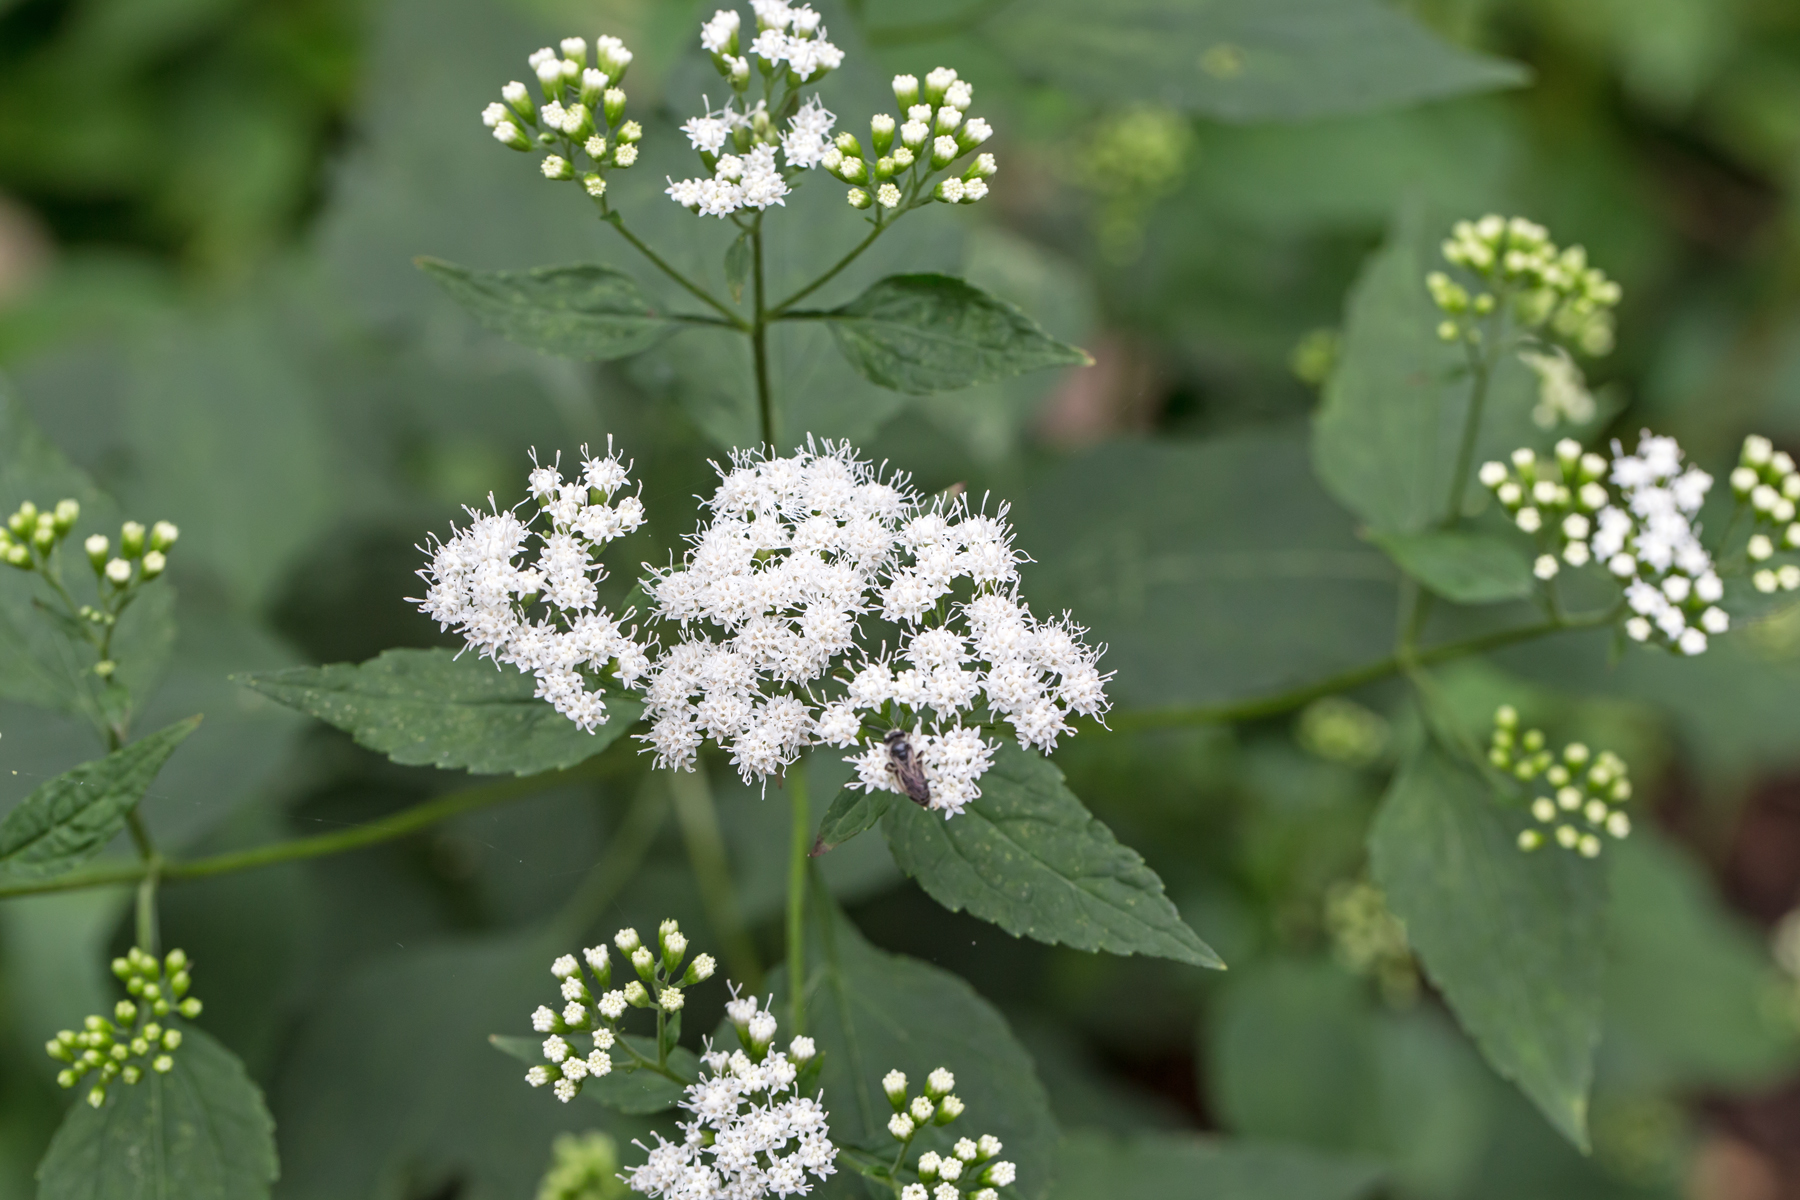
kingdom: Plantae
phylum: Tracheophyta
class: Magnoliopsida
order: Asterales
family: Asteraceae
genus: Ageratina
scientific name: Ageratina altissima
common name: White snakeroot
